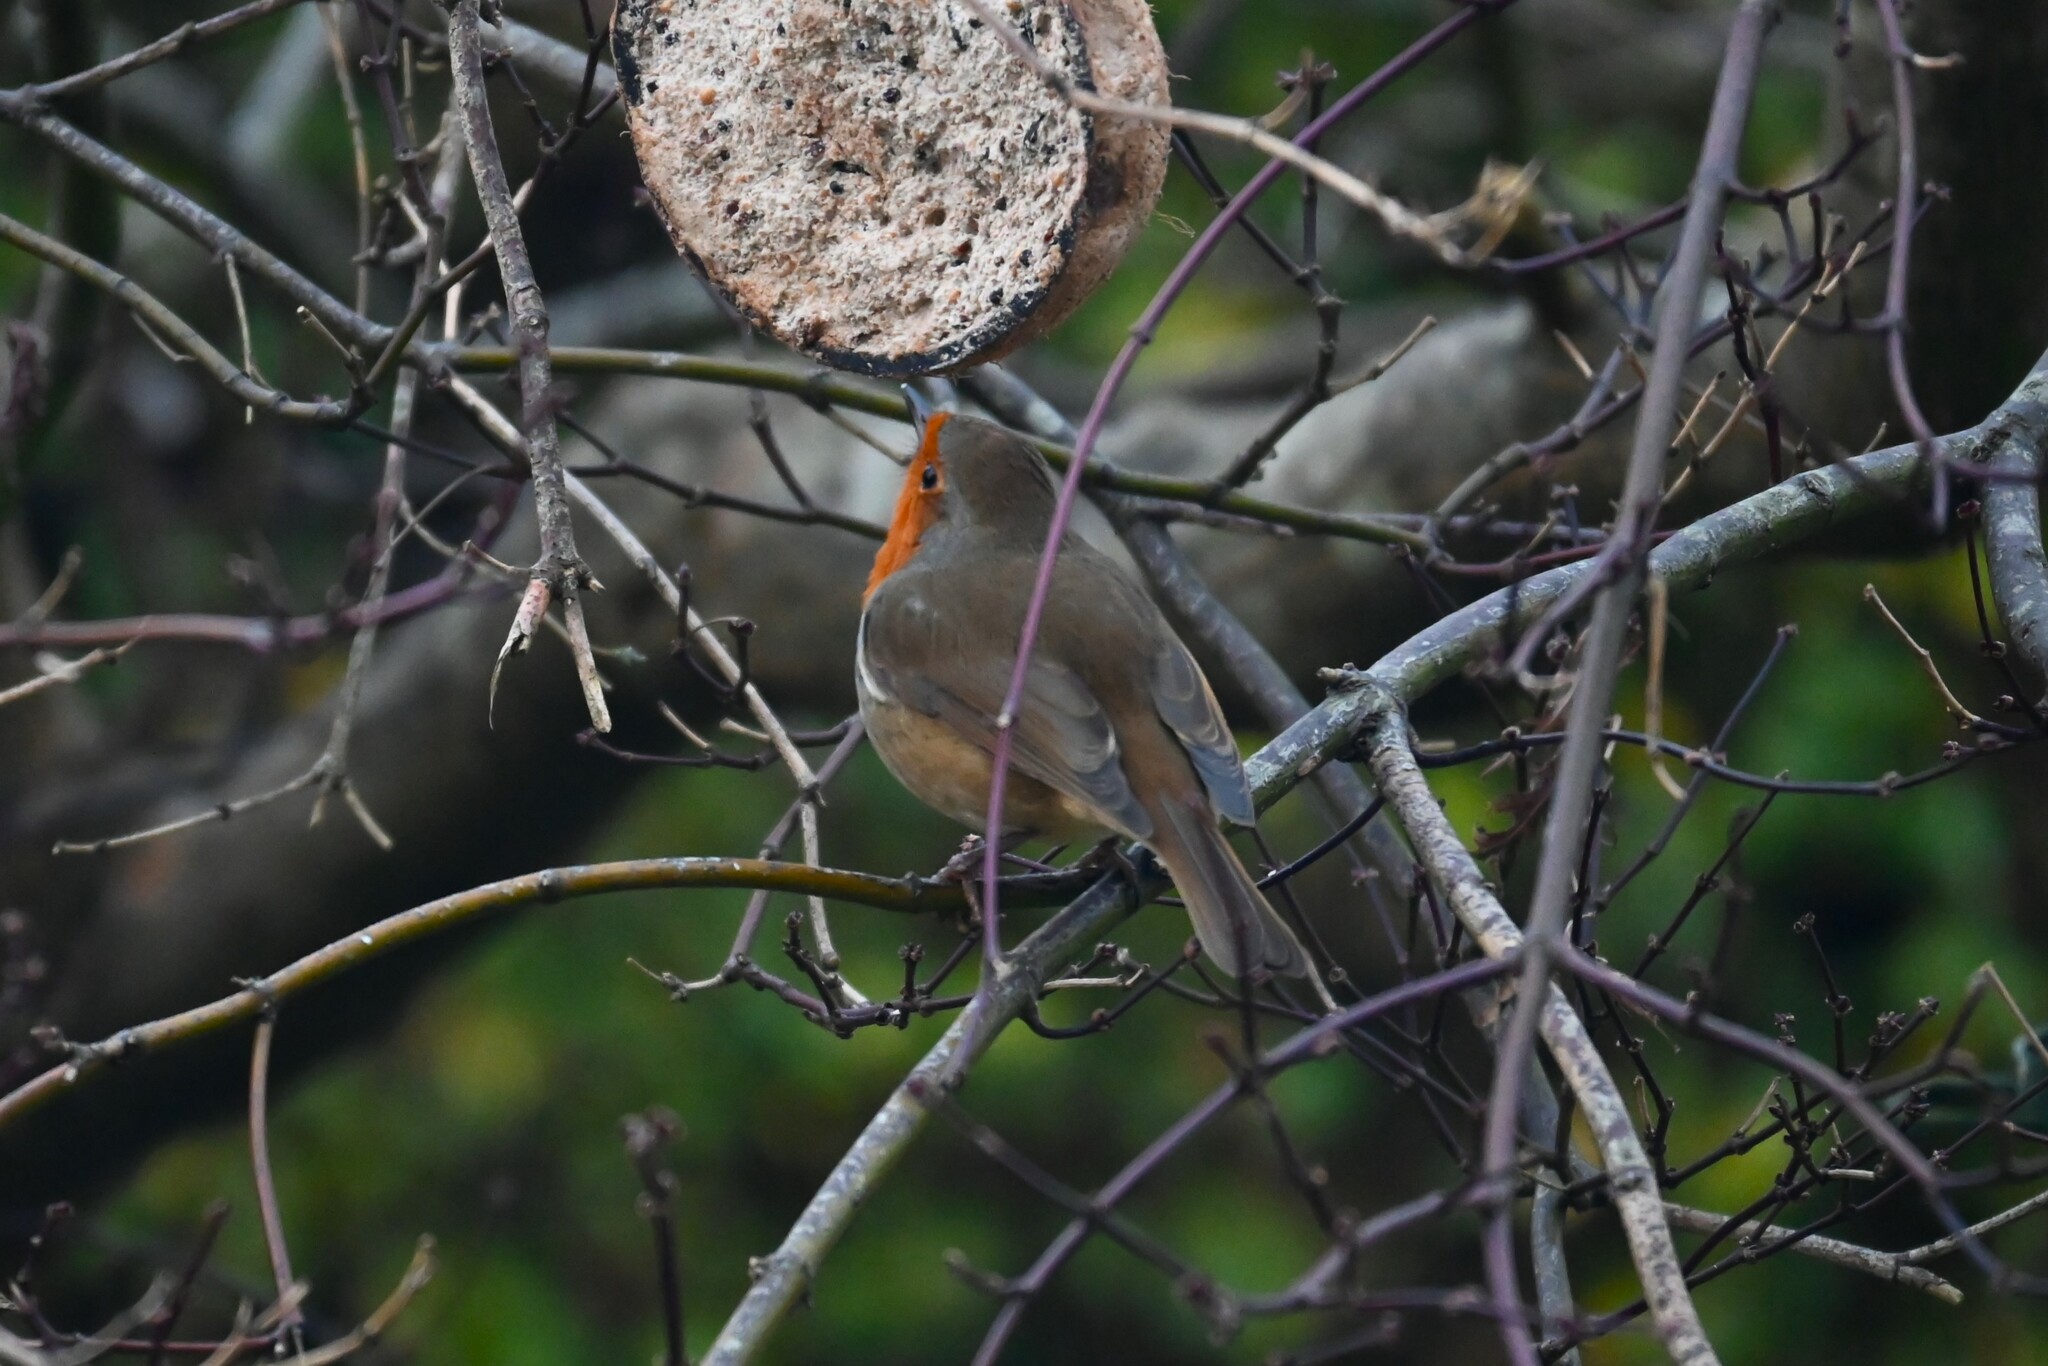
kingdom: Animalia
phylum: Chordata
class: Aves
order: Passeriformes
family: Muscicapidae
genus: Erithacus
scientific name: Erithacus rubecula
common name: European robin
